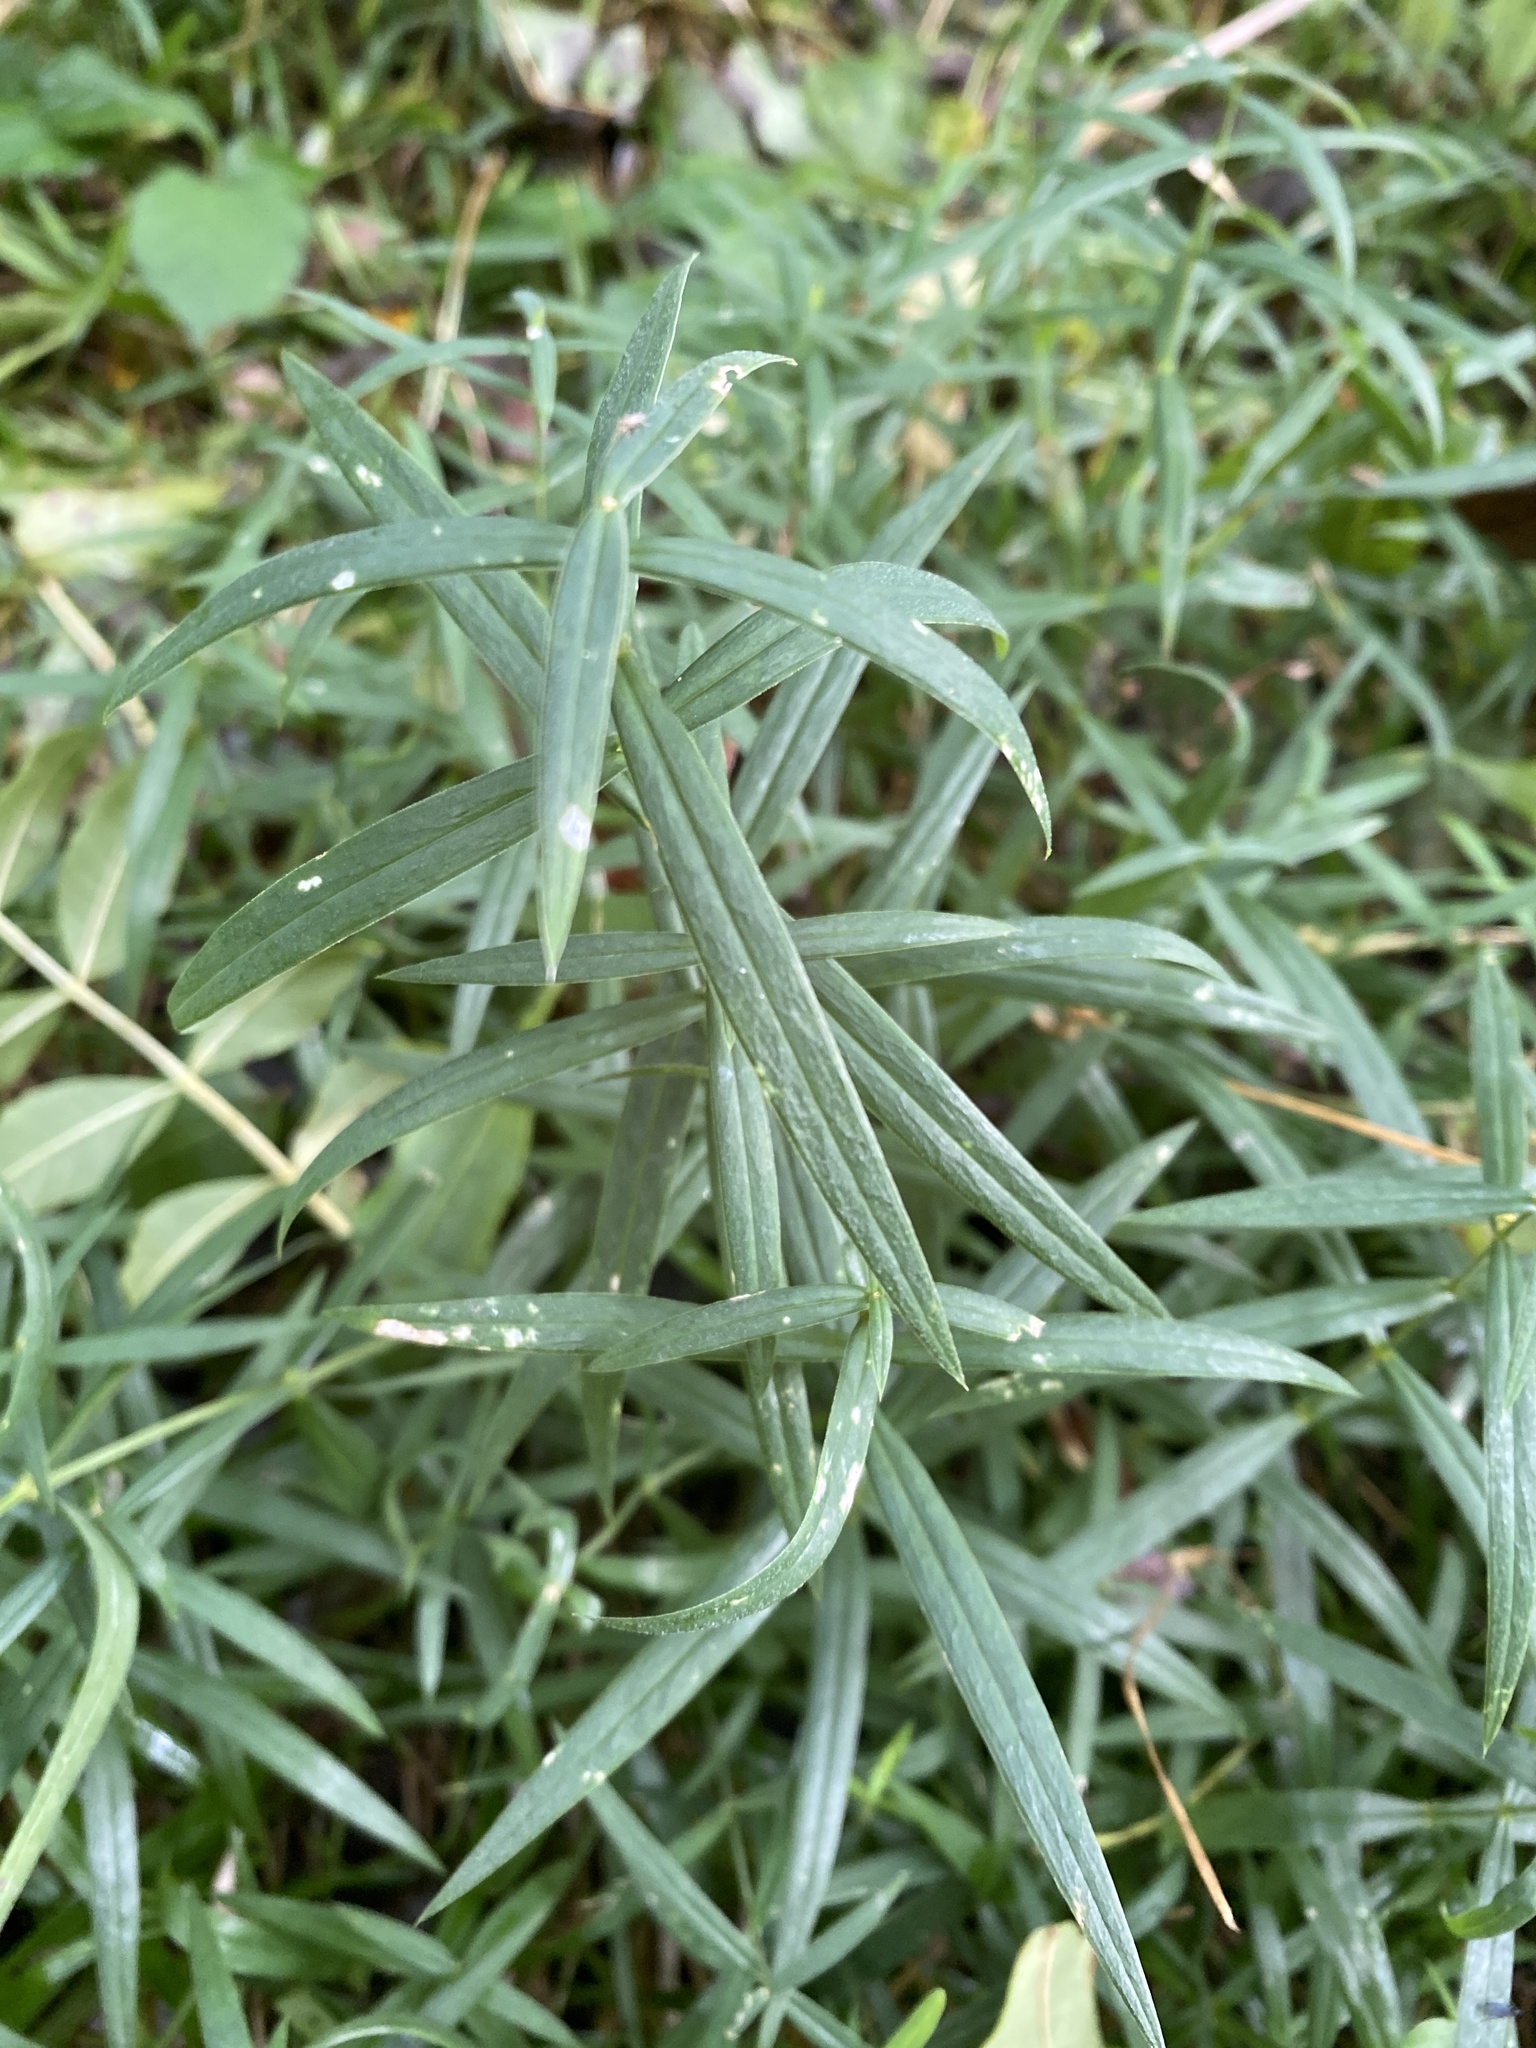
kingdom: Plantae
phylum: Tracheophyta
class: Magnoliopsida
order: Caryophyllales
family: Caryophyllaceae
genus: Rabelera
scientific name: Rabelera holostea
